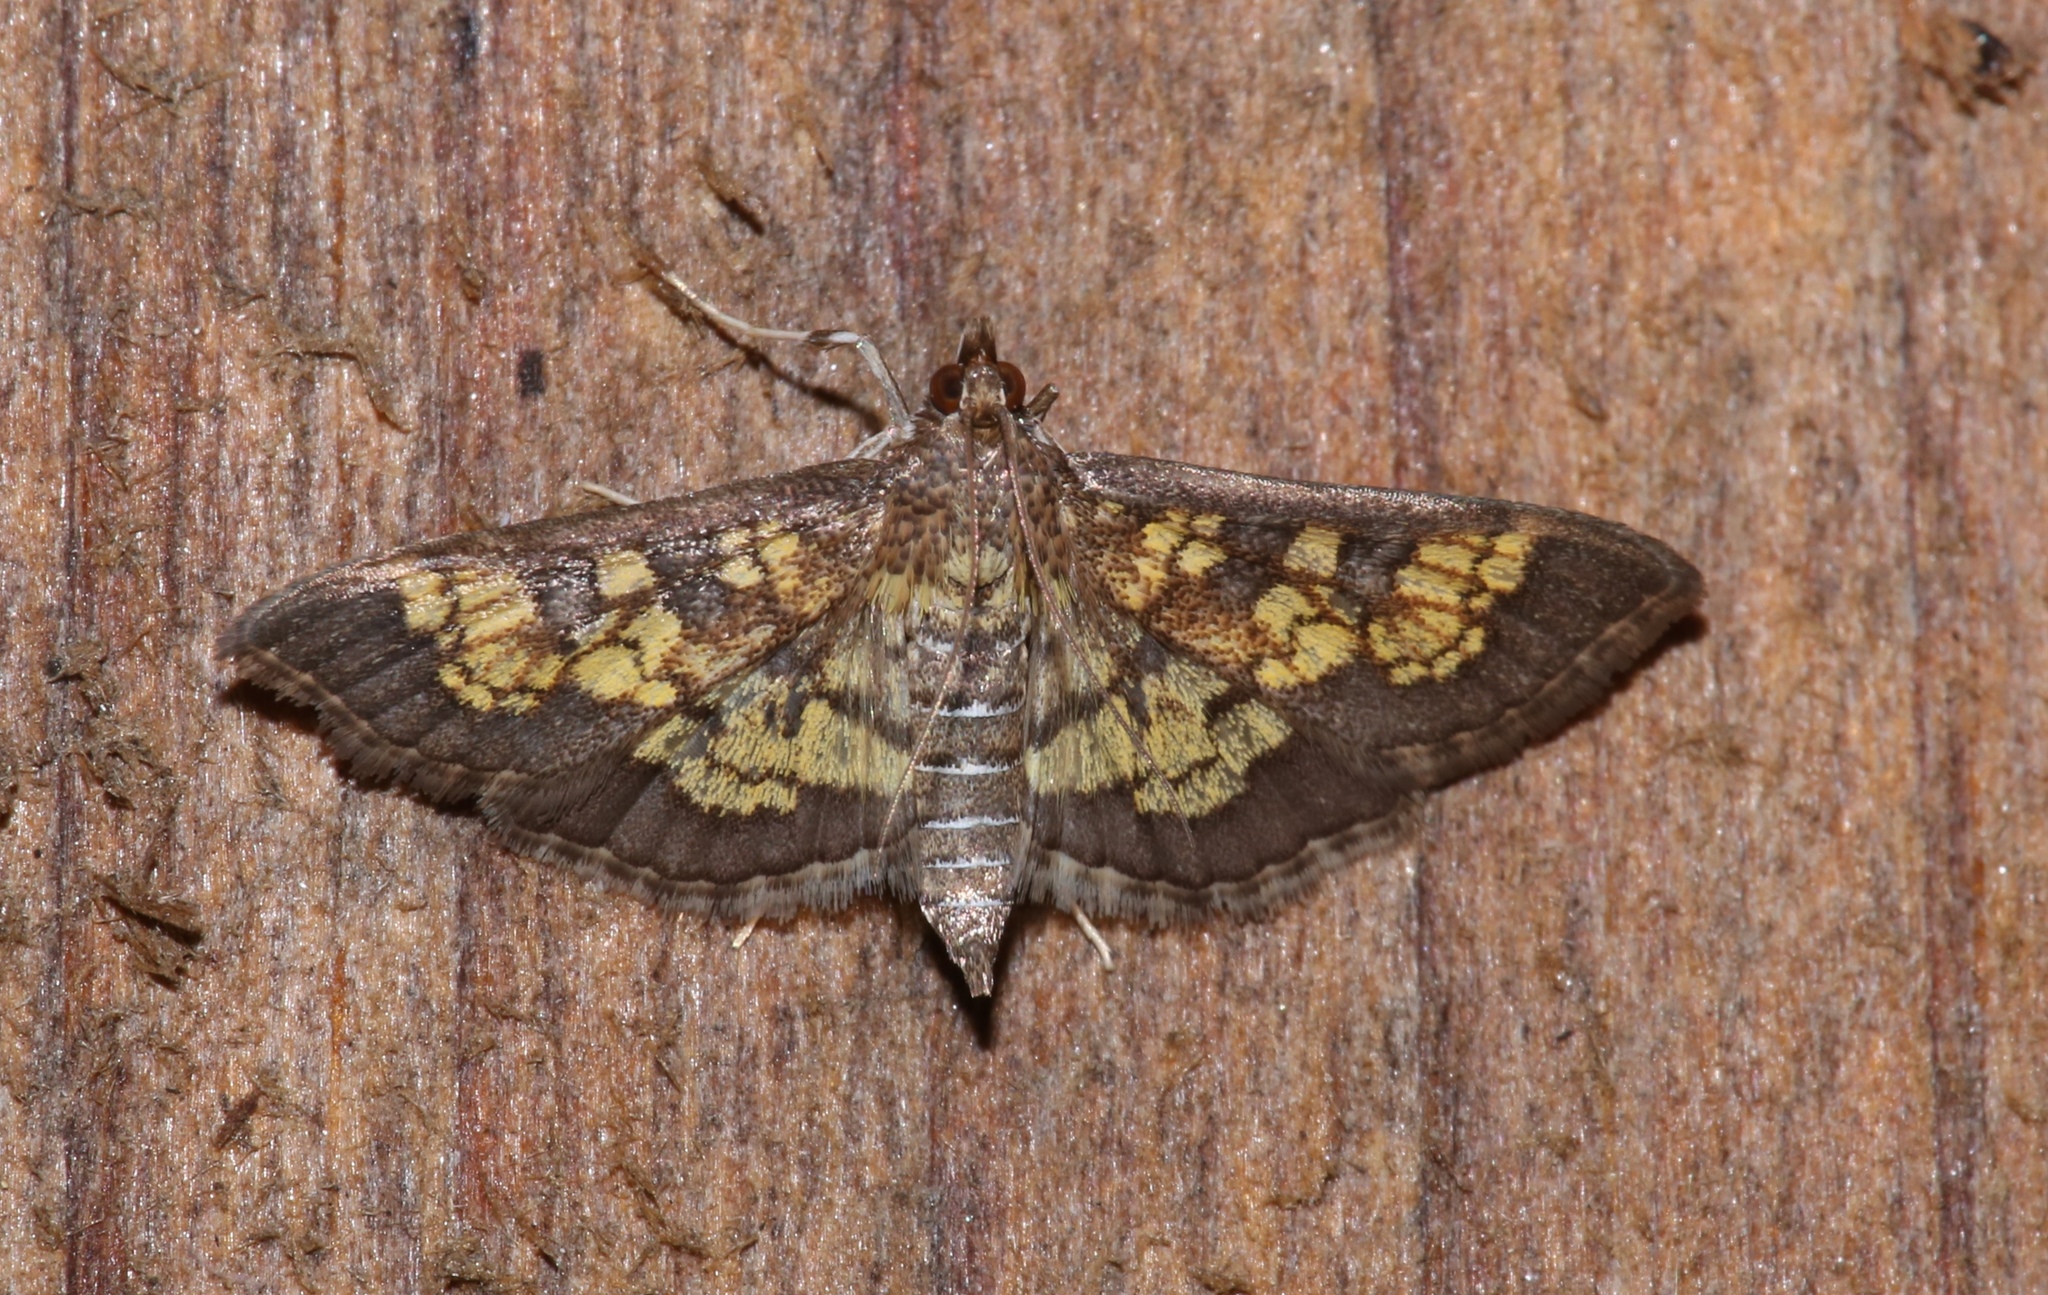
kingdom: Animalia
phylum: Arthropoda
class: Insecta
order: Lepidoptera
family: Crambidae
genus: Epipagis
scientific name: Epipagis adipaloides
